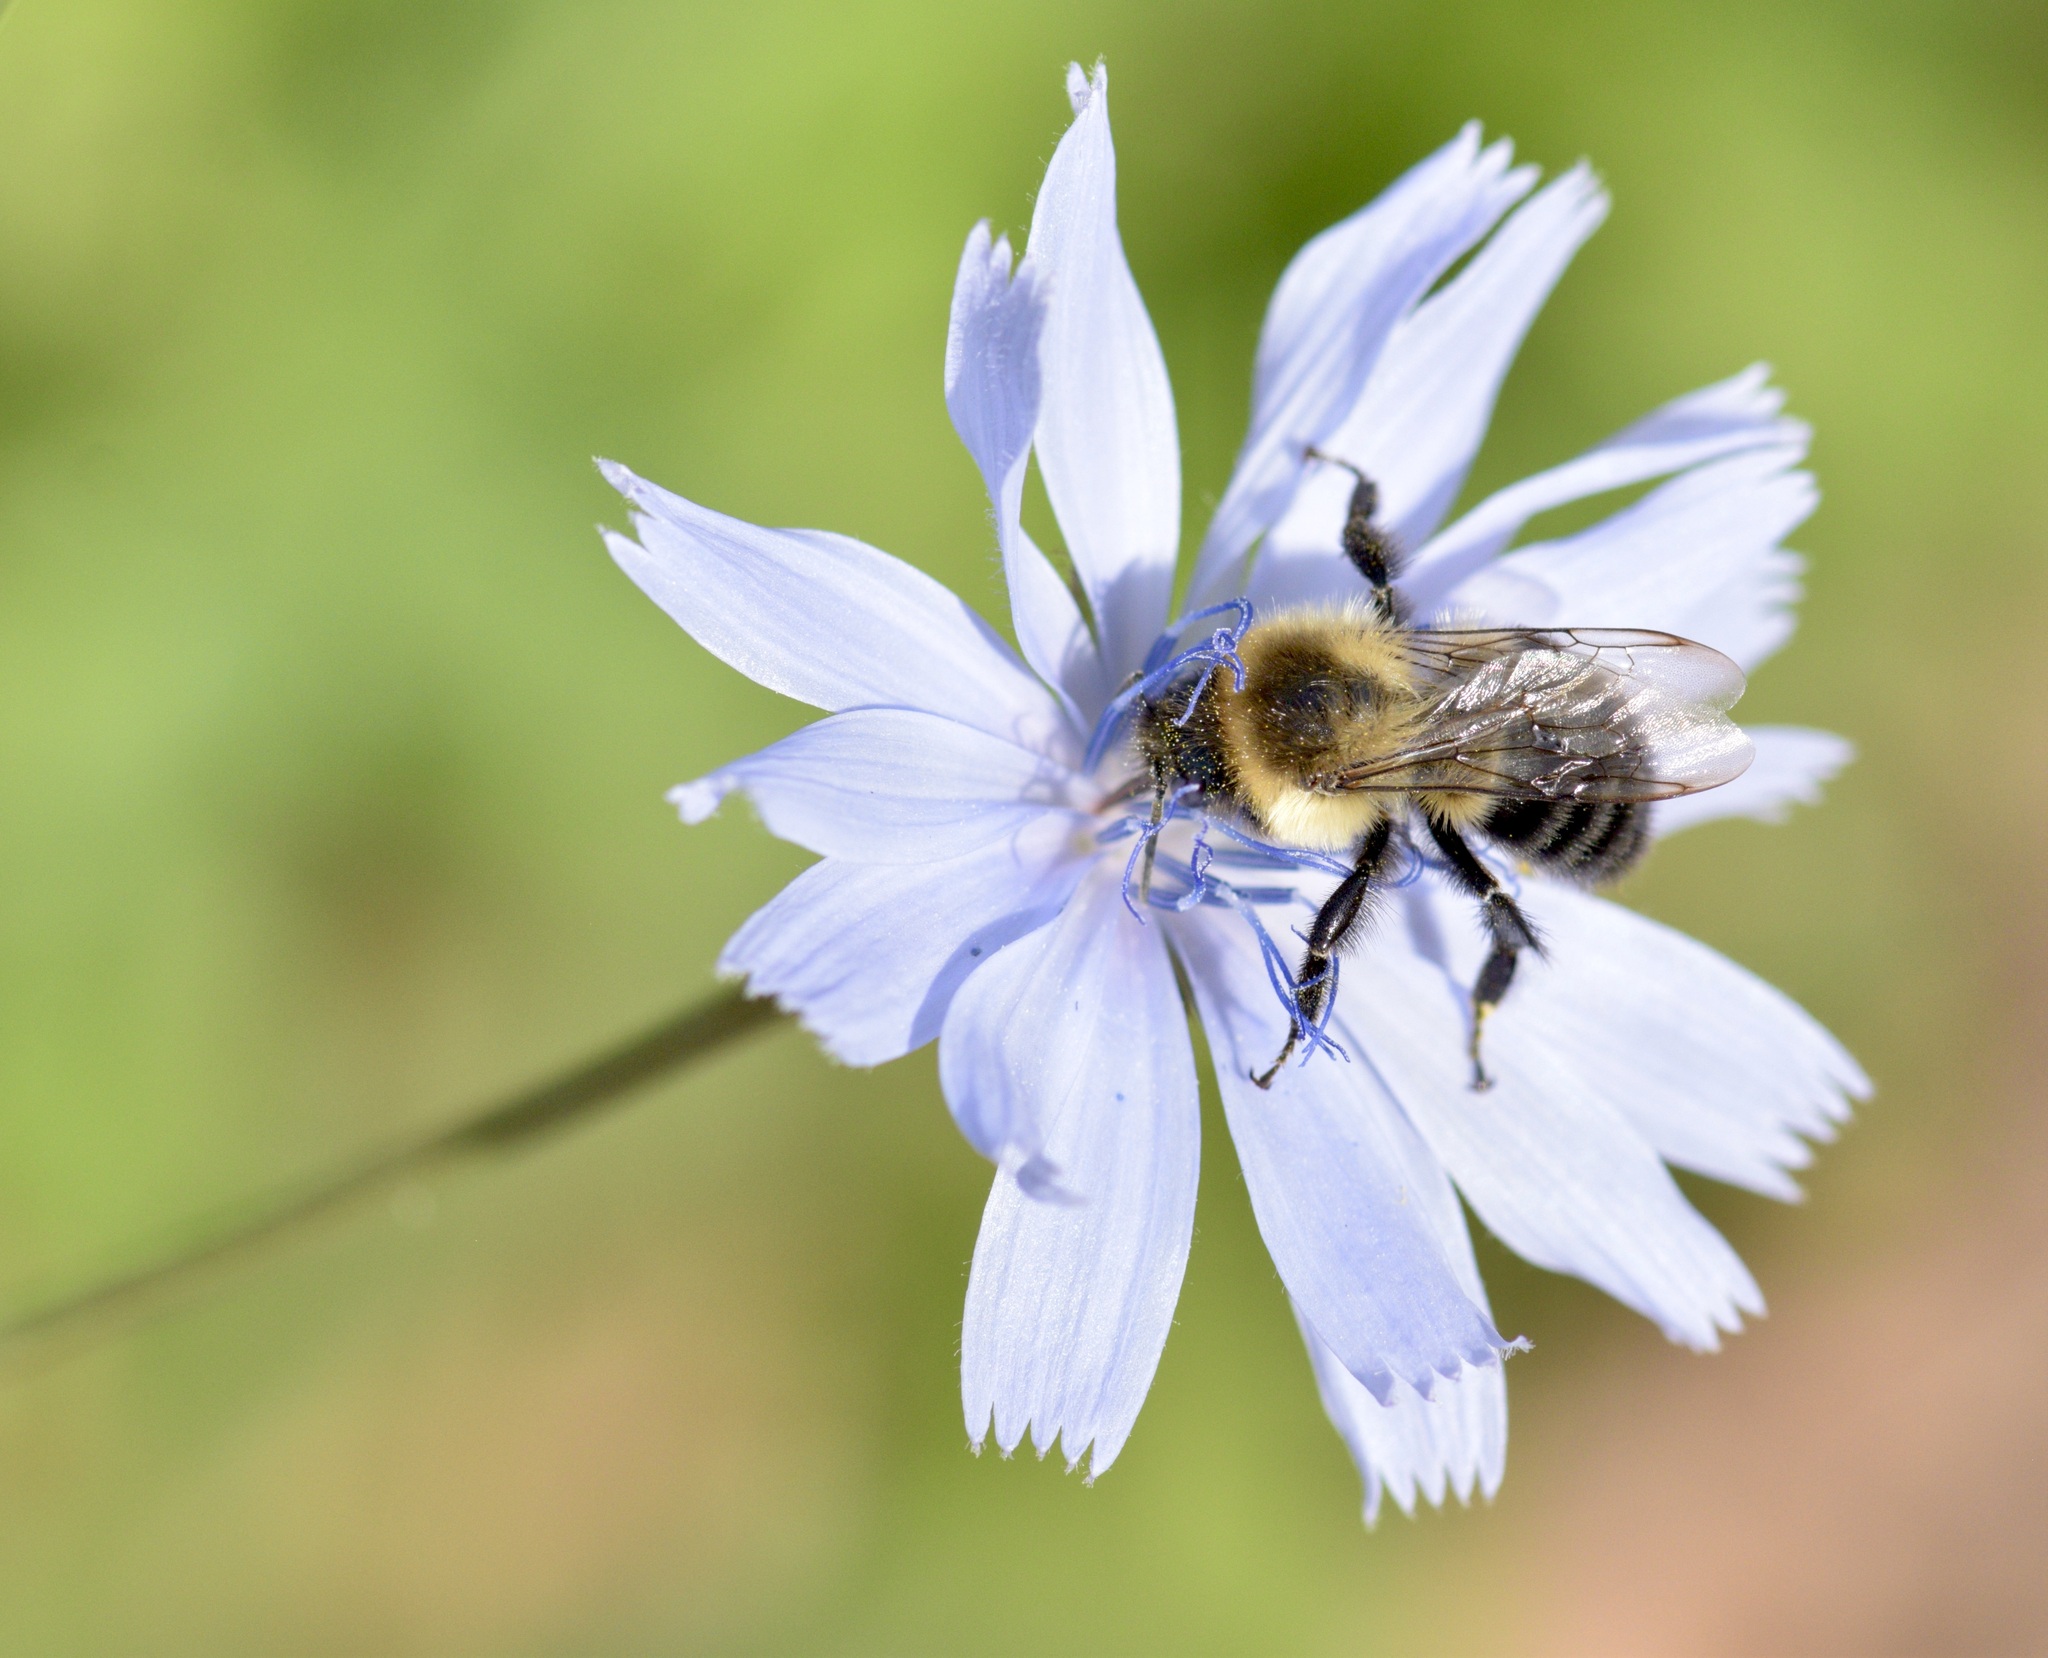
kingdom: Animalia
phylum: Arthropoda
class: Insecta
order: Hymenoptera
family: Apidae
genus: Bombus
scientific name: Bombus impatiens
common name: Common eastern bumble bee
